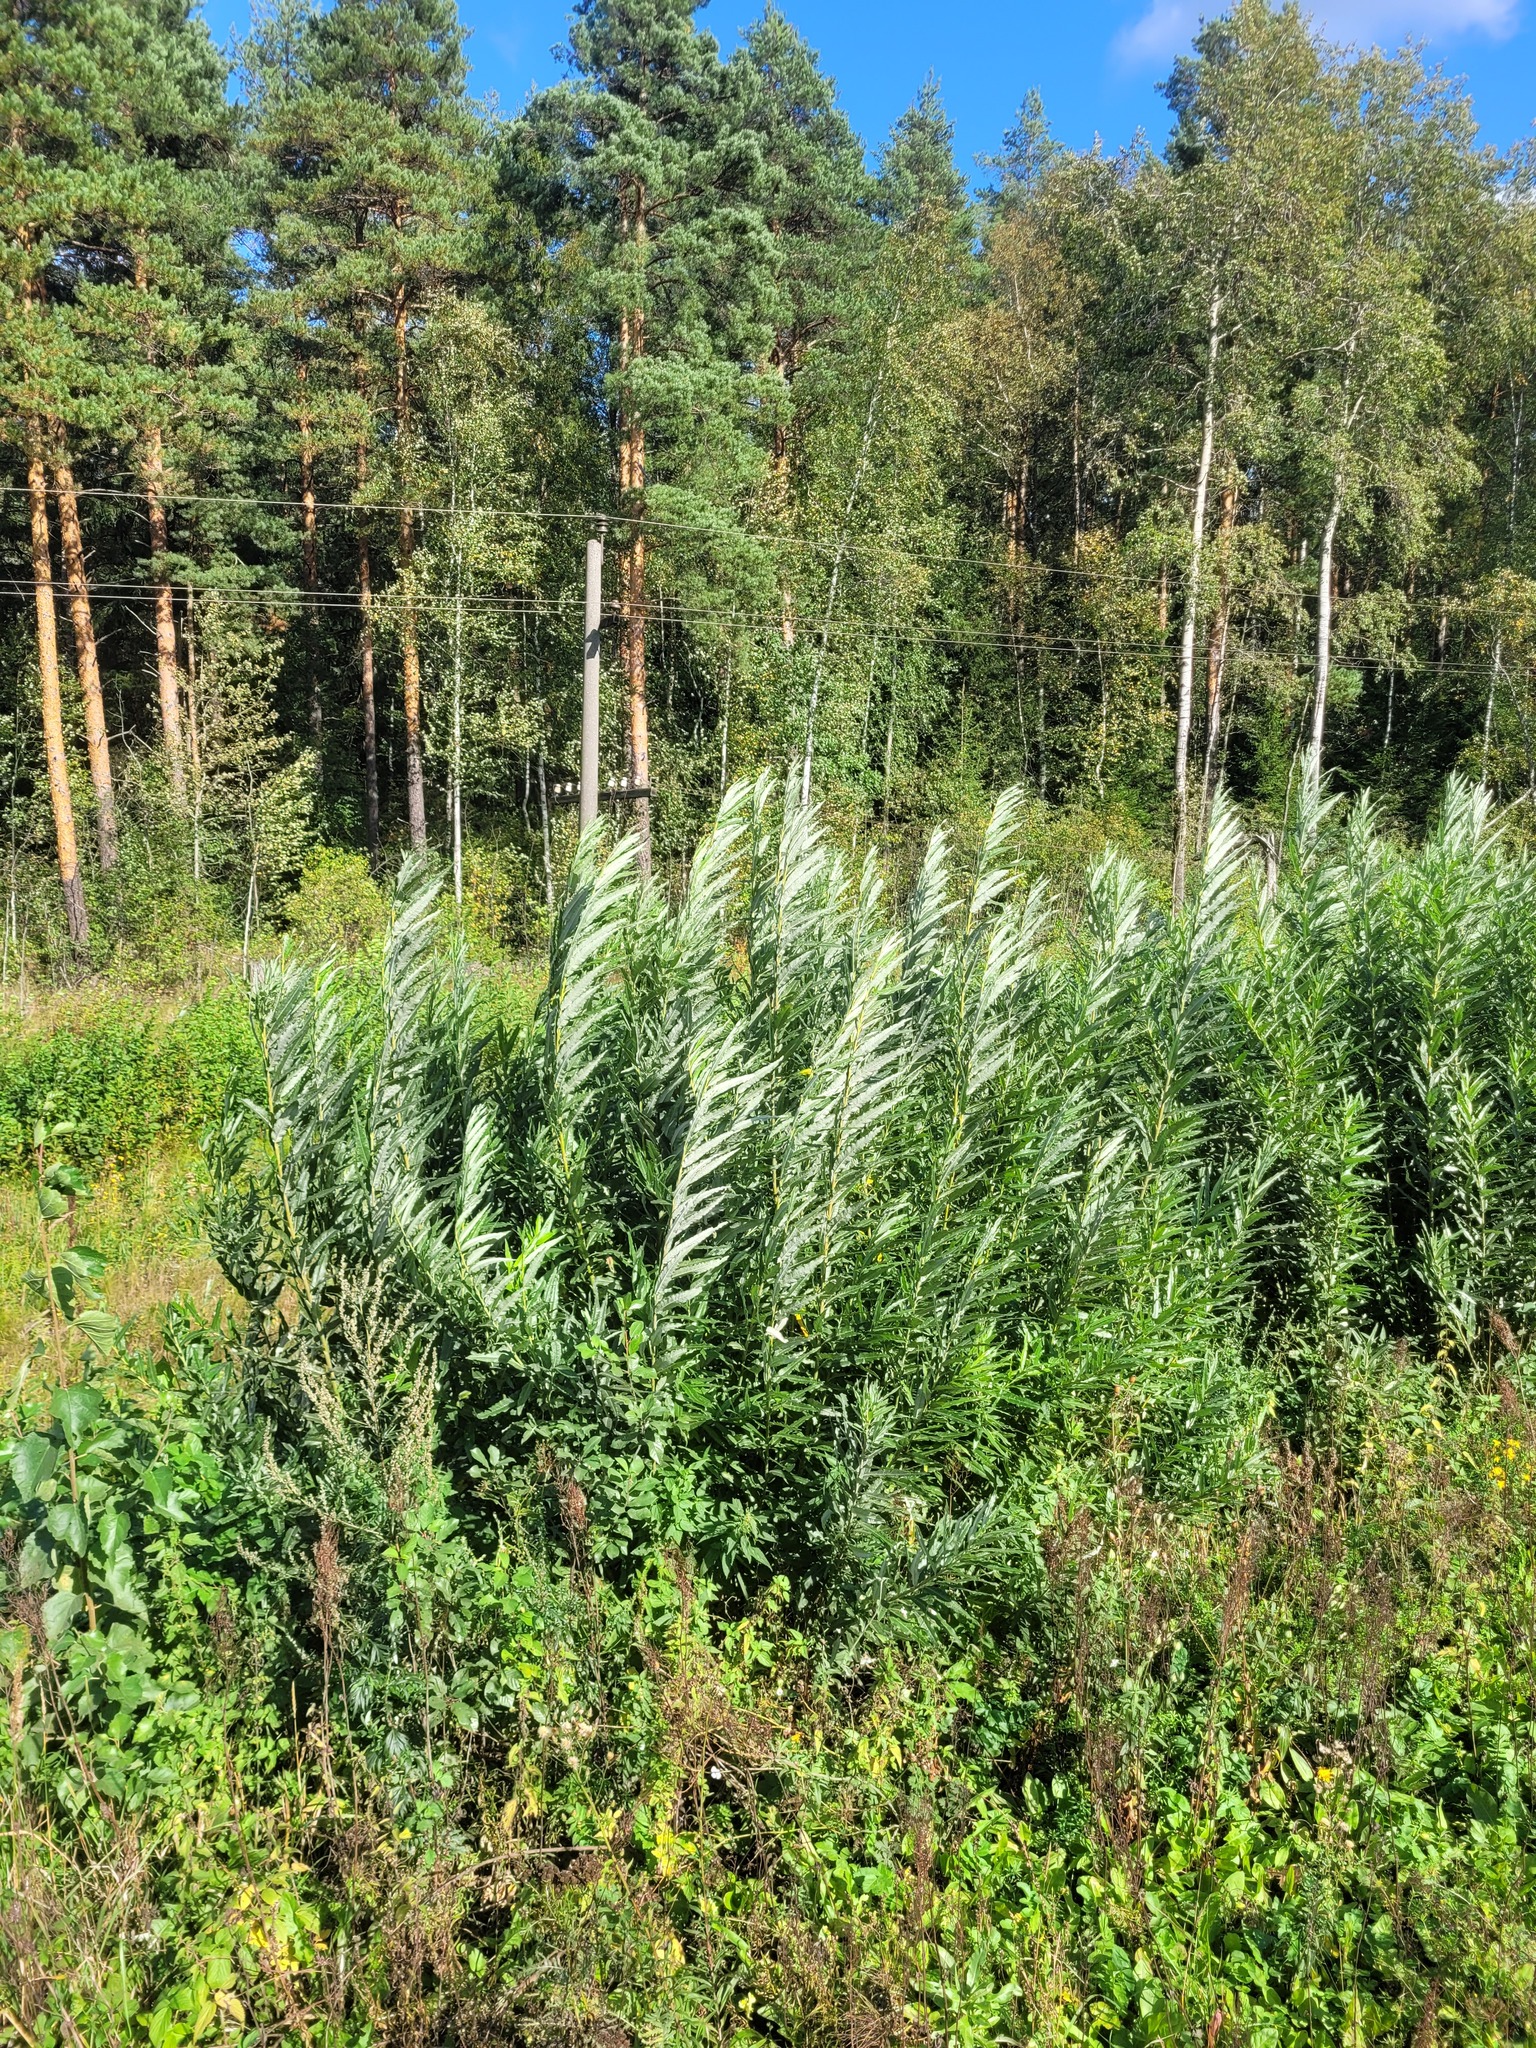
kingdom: Plantae
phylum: Tracheophyta
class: Magnoliopsida
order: Malpighiales
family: Salicaceae
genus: Salix
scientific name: Salix gmelinii
